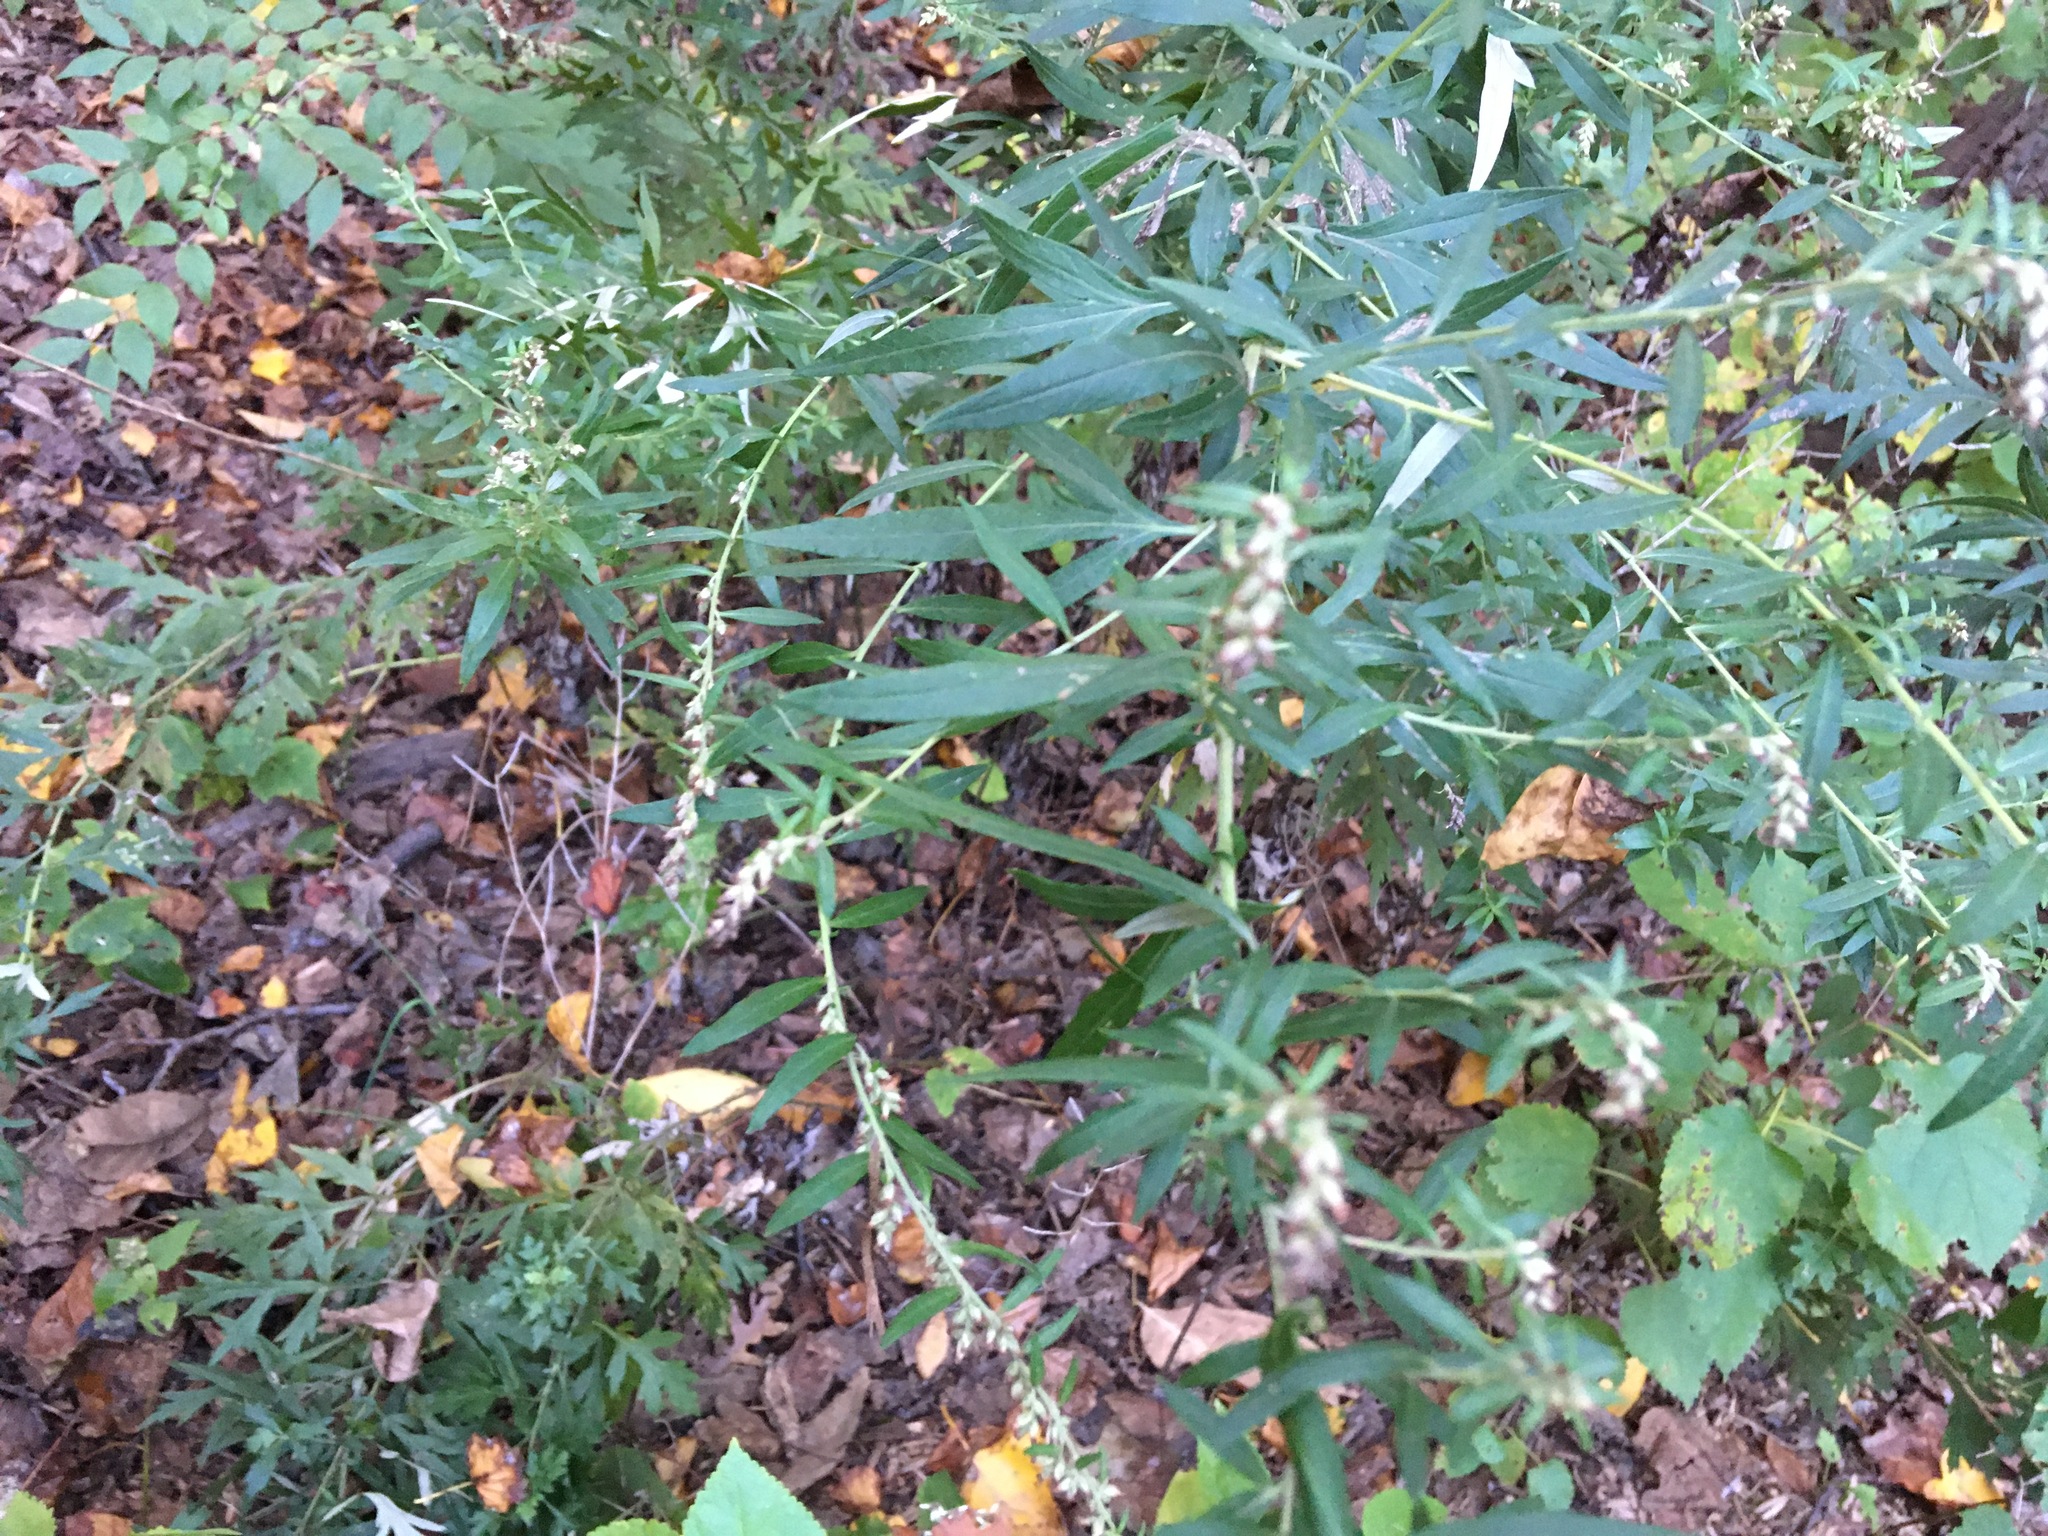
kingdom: Plantae
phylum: Tracheophyta
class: Magnoliopsida
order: Asterales
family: Asteraceae
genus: Artemisia
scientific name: Artemisia vulgaris
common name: Mugwort
